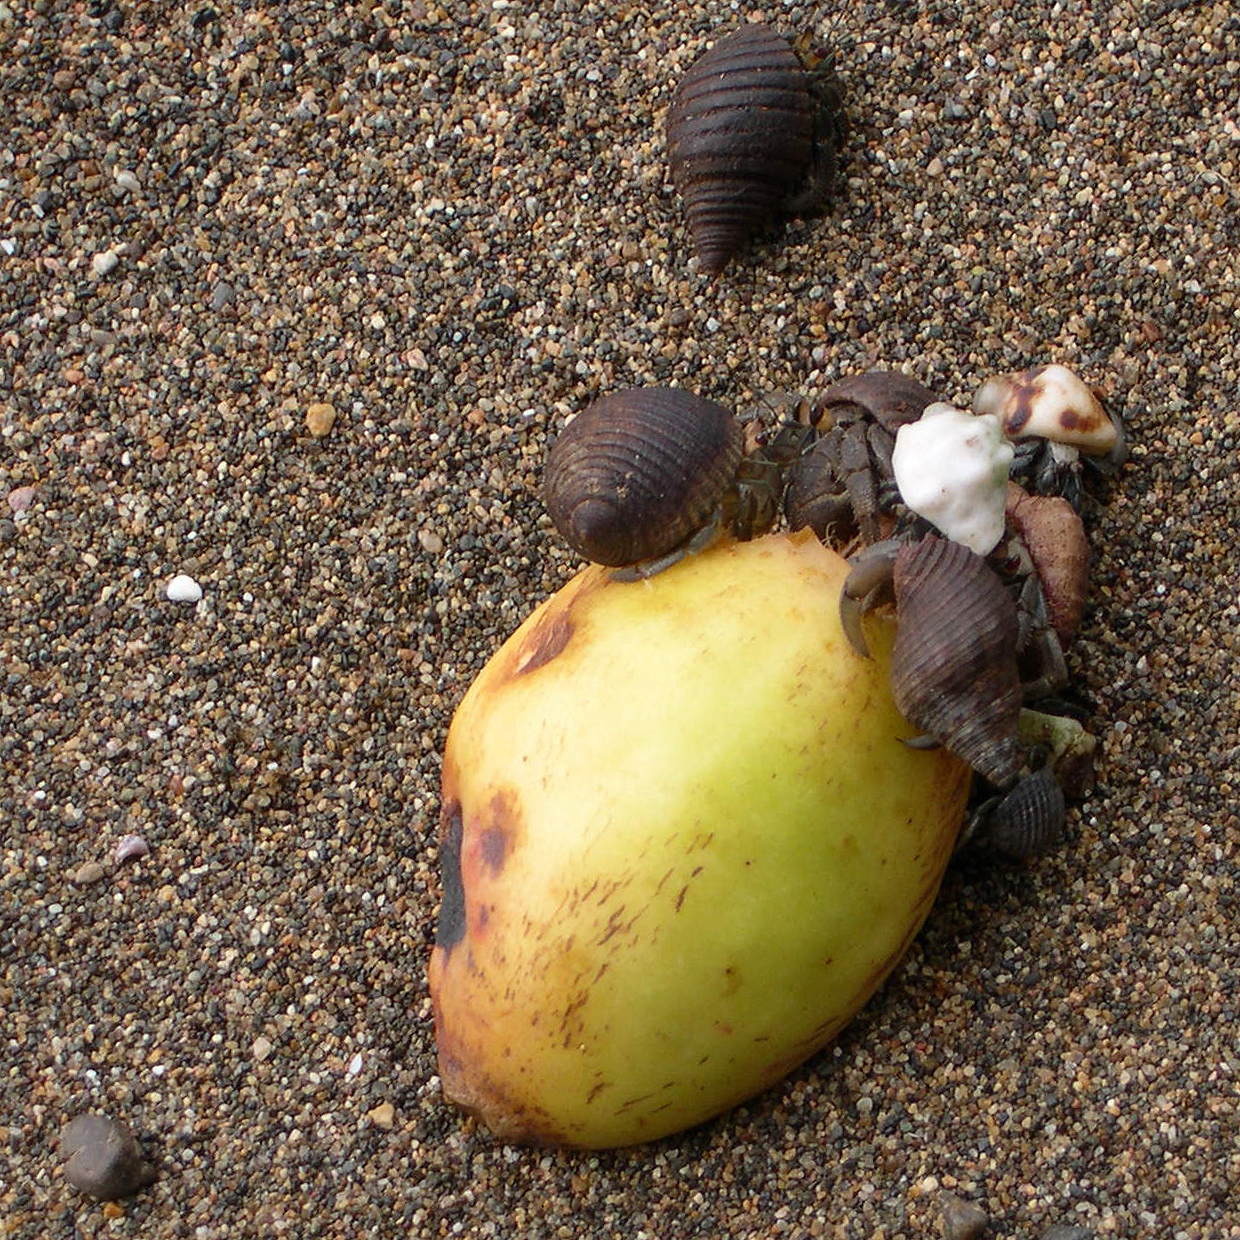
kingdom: Animalia
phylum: Arthropoda
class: Malacostraca
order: Decapoda
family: Coenobitidae
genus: Coenobita
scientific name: Coenobita compressus
